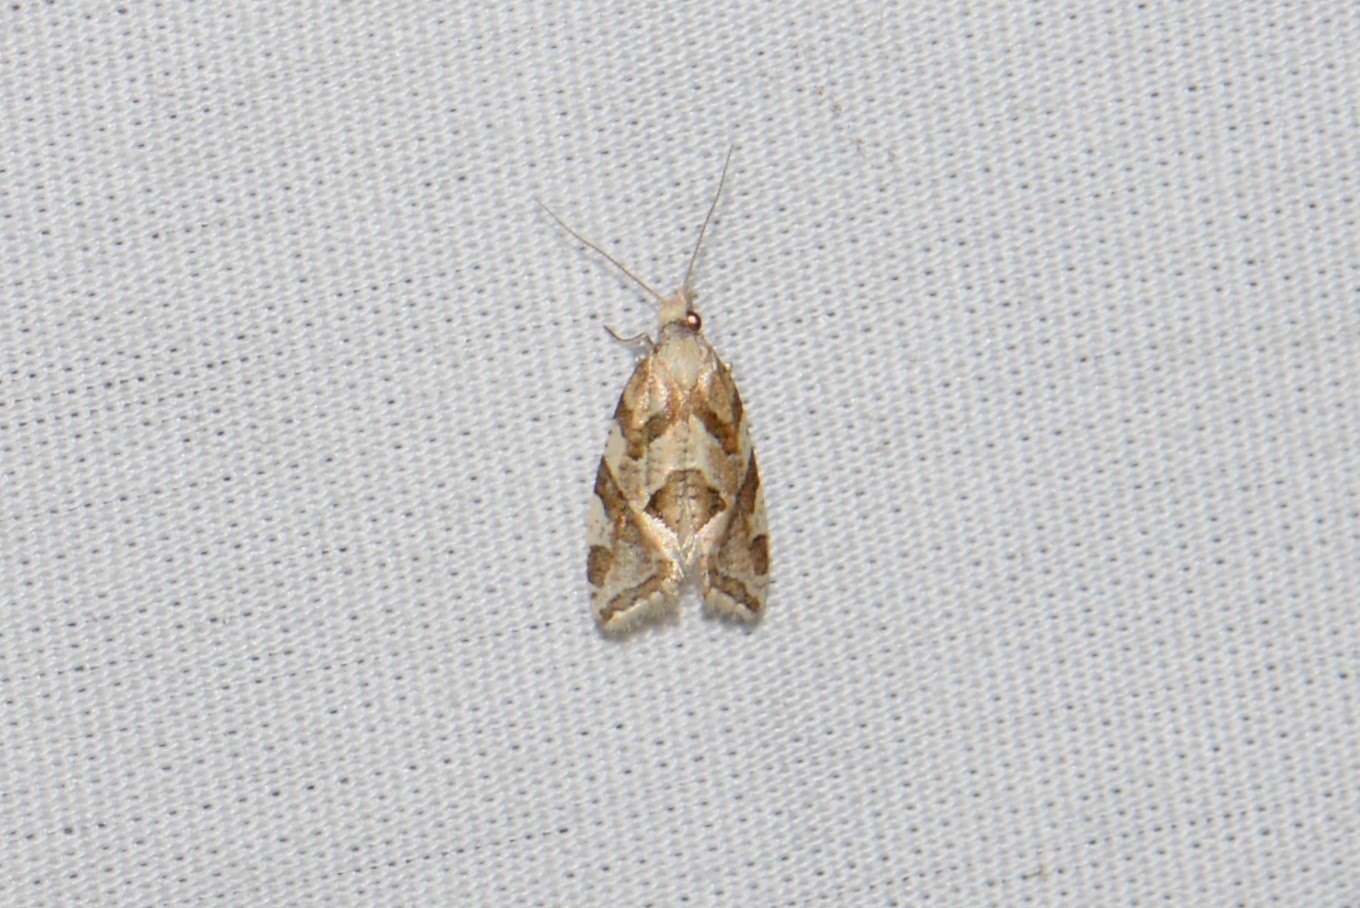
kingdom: Animalia
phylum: Arthropoda
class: Insecta
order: Lepidoptera
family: Tortricidae
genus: Aethes
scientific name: Aethes sexdentata
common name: Six-toothed aethes
